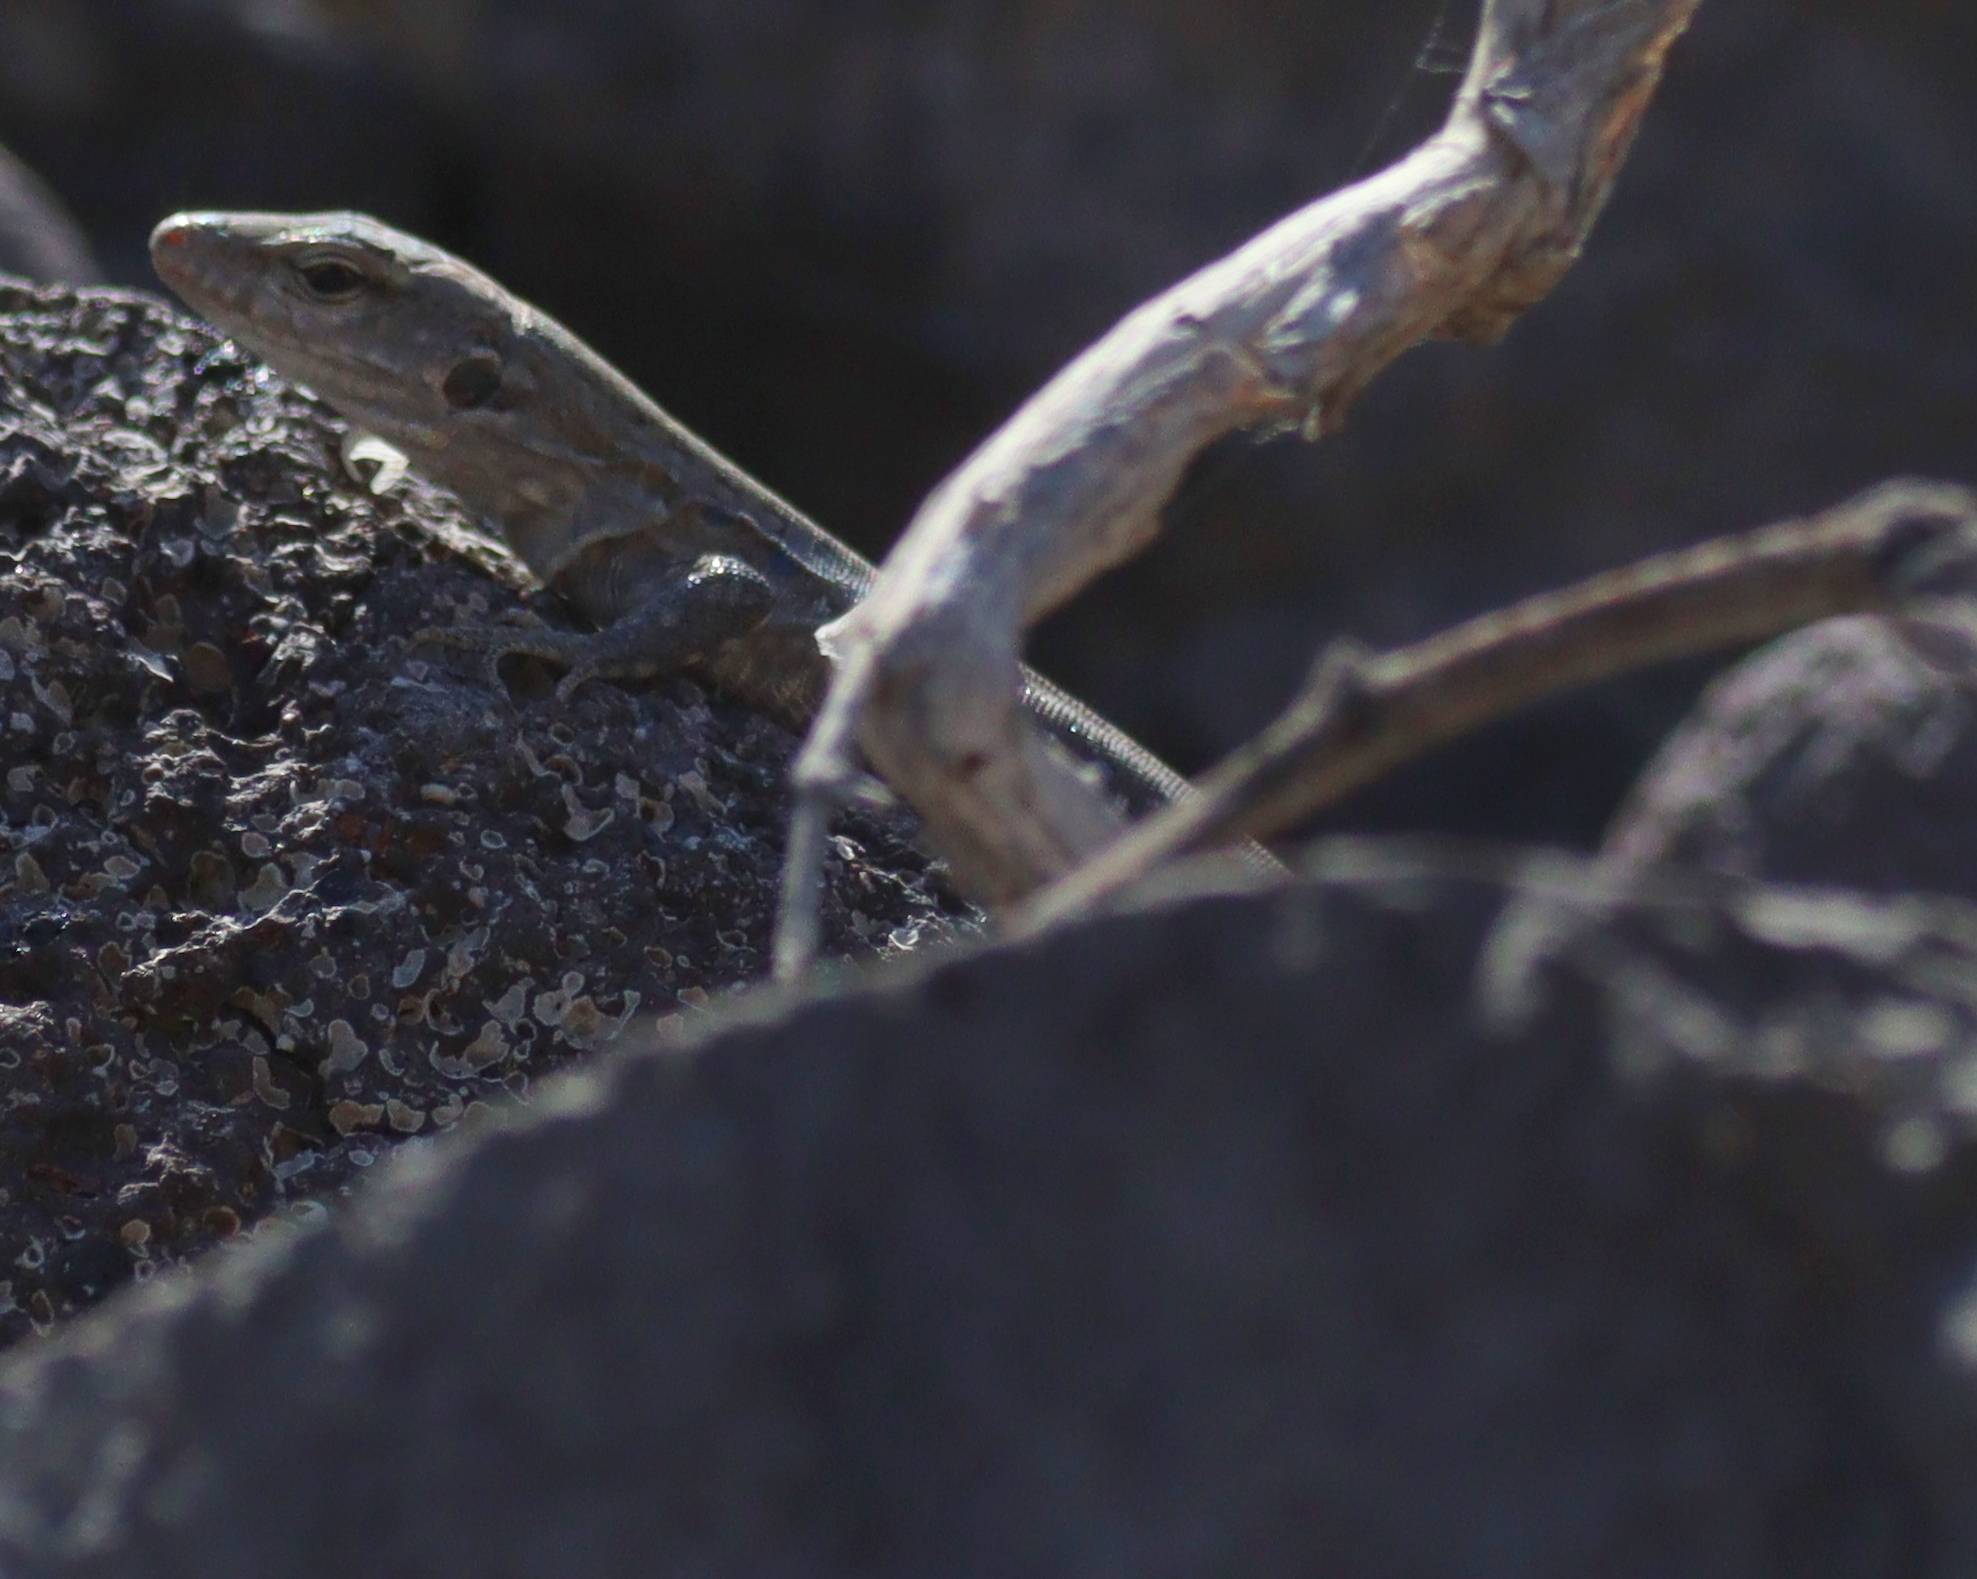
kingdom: Animalia
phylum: Chordata
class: Squamata
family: Lacertidae
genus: Gallotia
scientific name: Gallotia galloti
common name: Gallot's lizard
